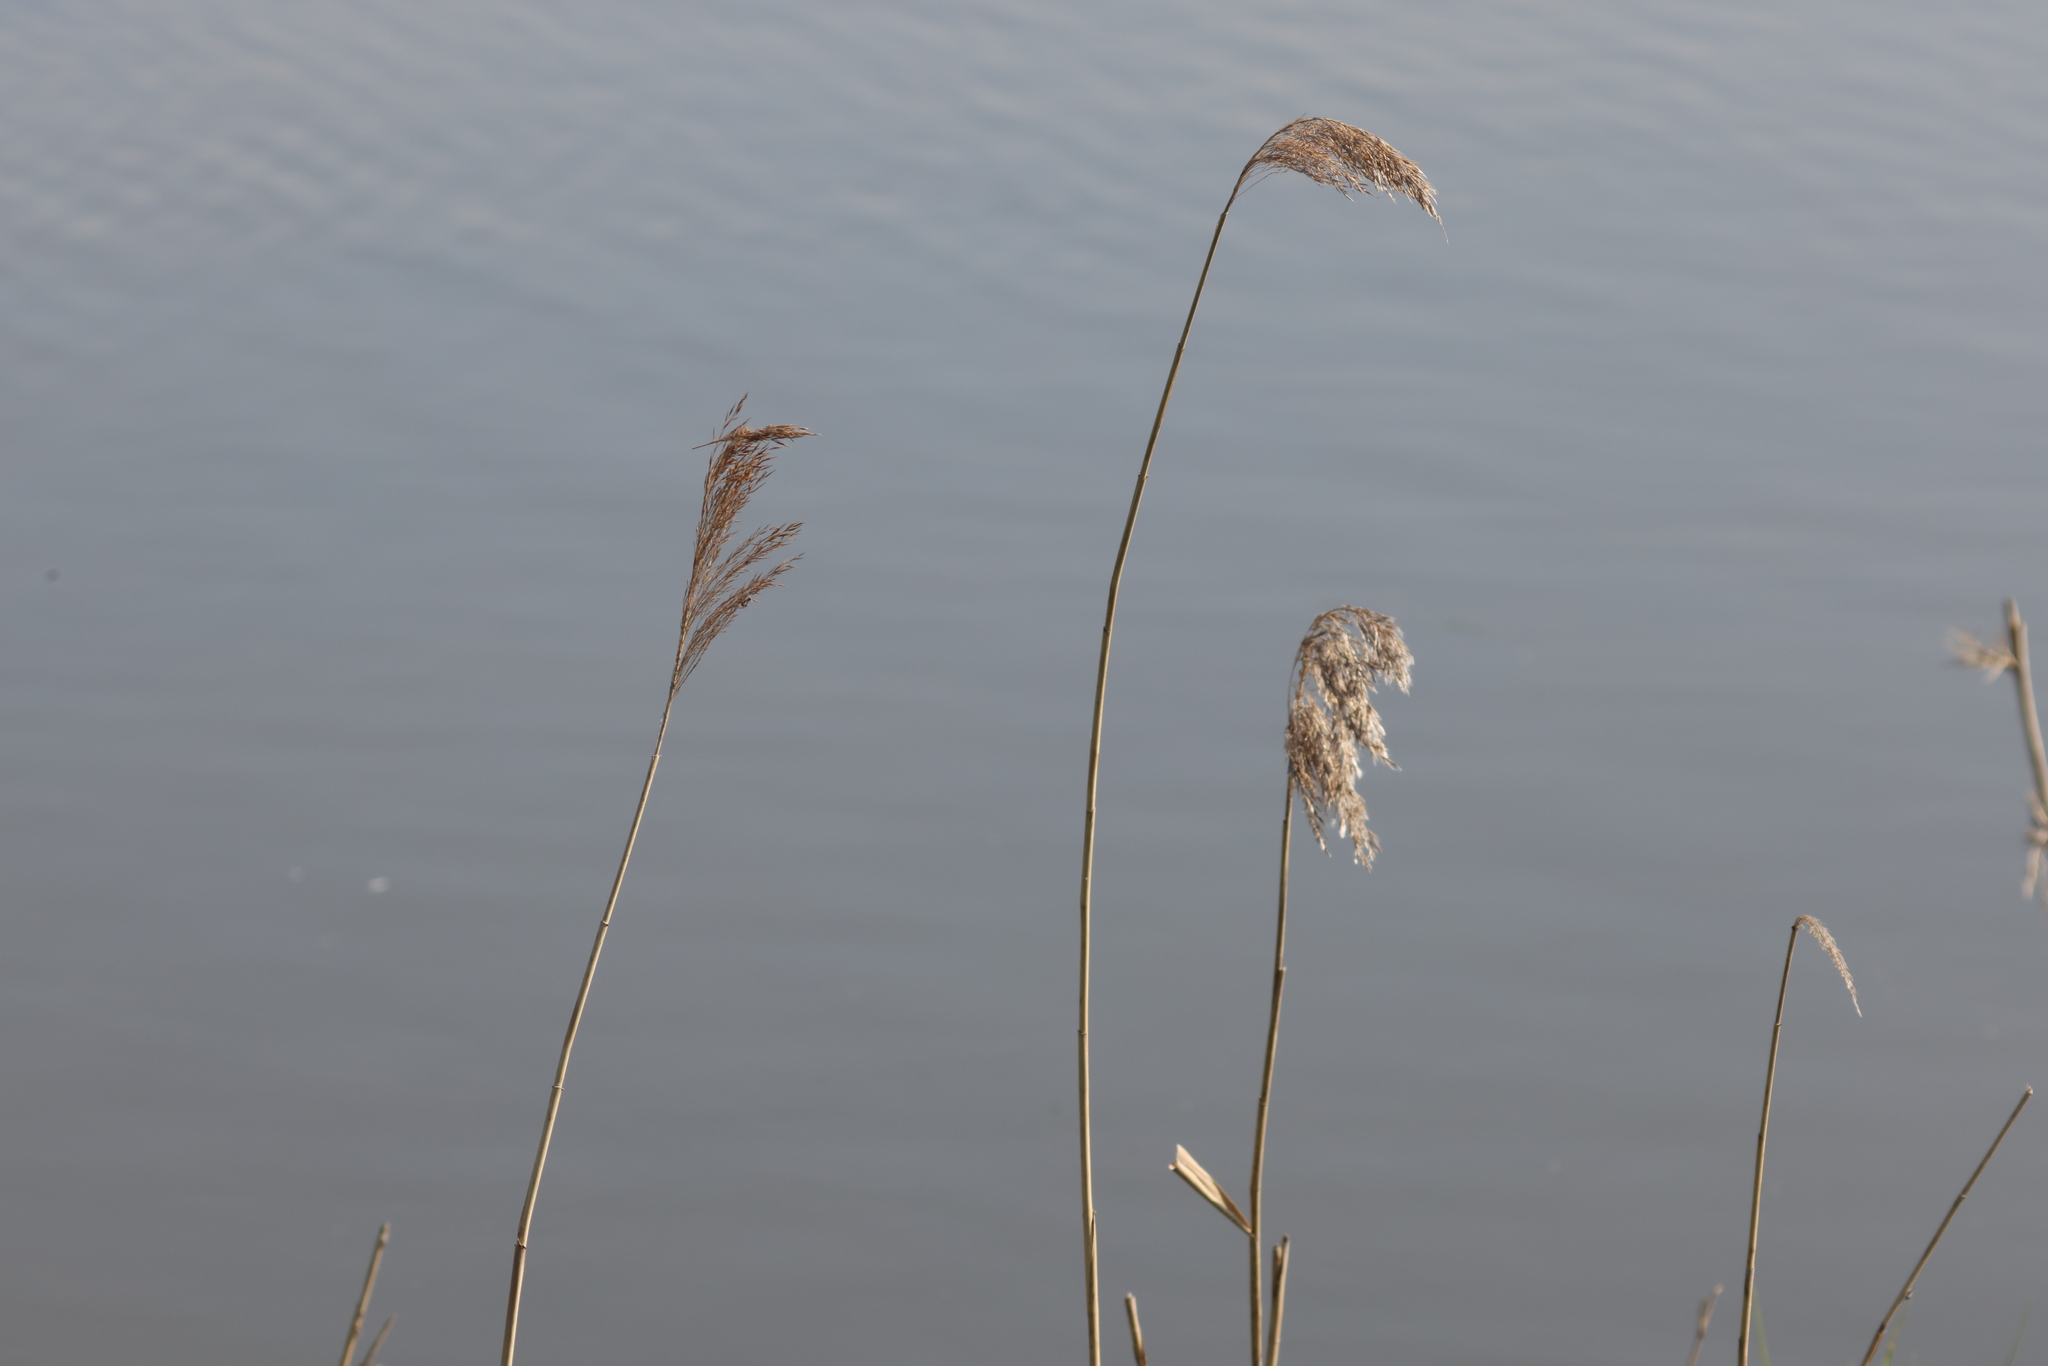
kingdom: Plantae
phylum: Tracheophyta
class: Liliopsida
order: Poales
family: Poaceae
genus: Phragmites
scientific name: Phragmites australis
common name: Common reed
